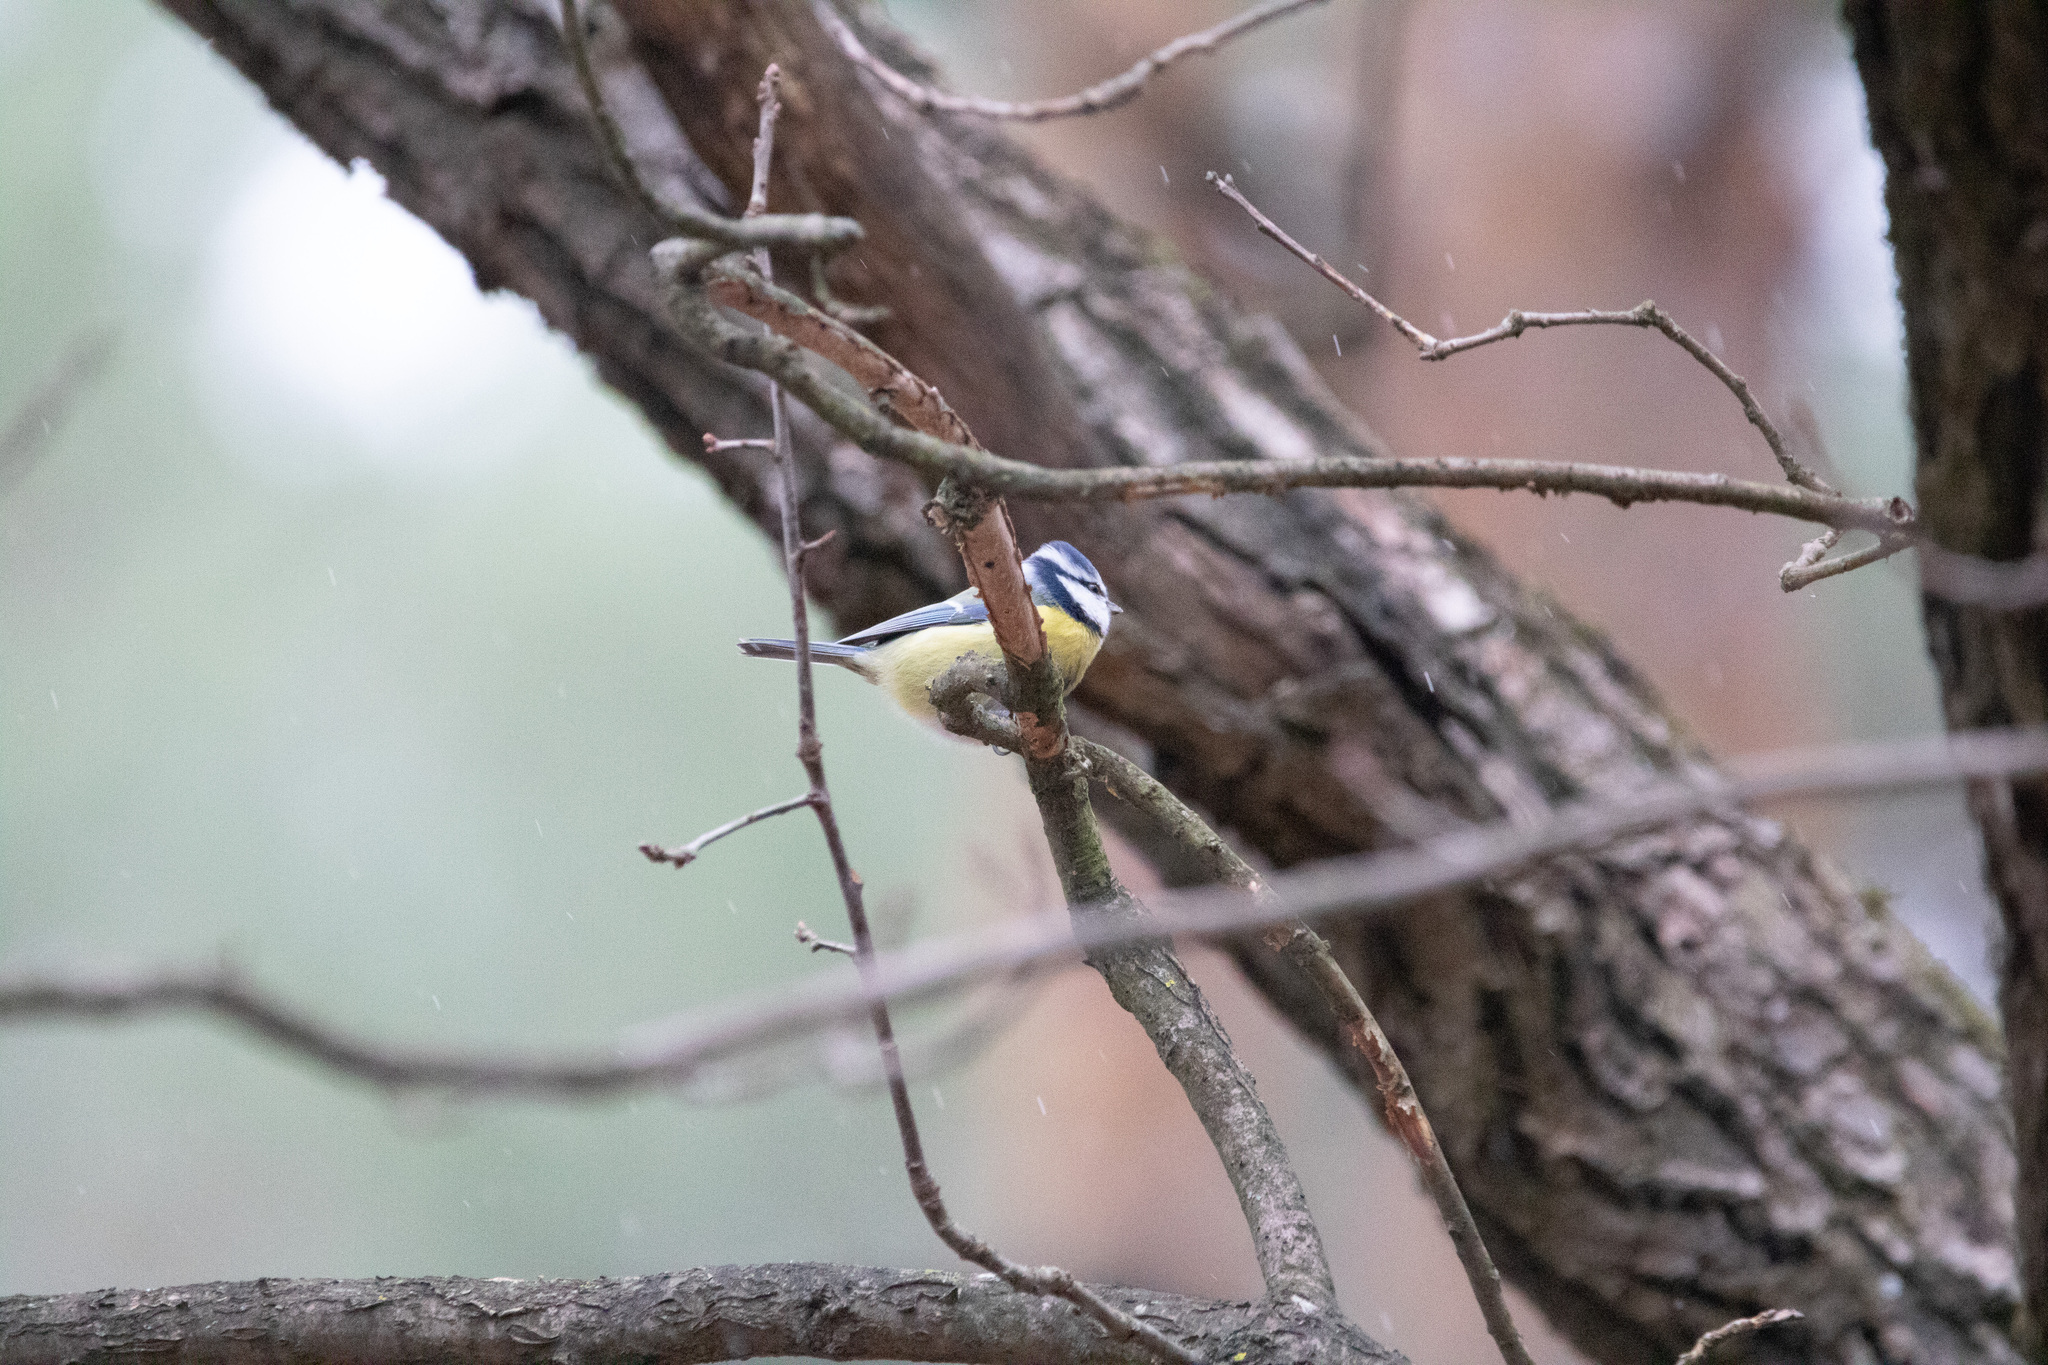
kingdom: Animalia
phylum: Chordata
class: Aves
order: Passeriformes
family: Paridae
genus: Cyanistes
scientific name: Cyanistes caeruleus
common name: Eurasian blue tit
